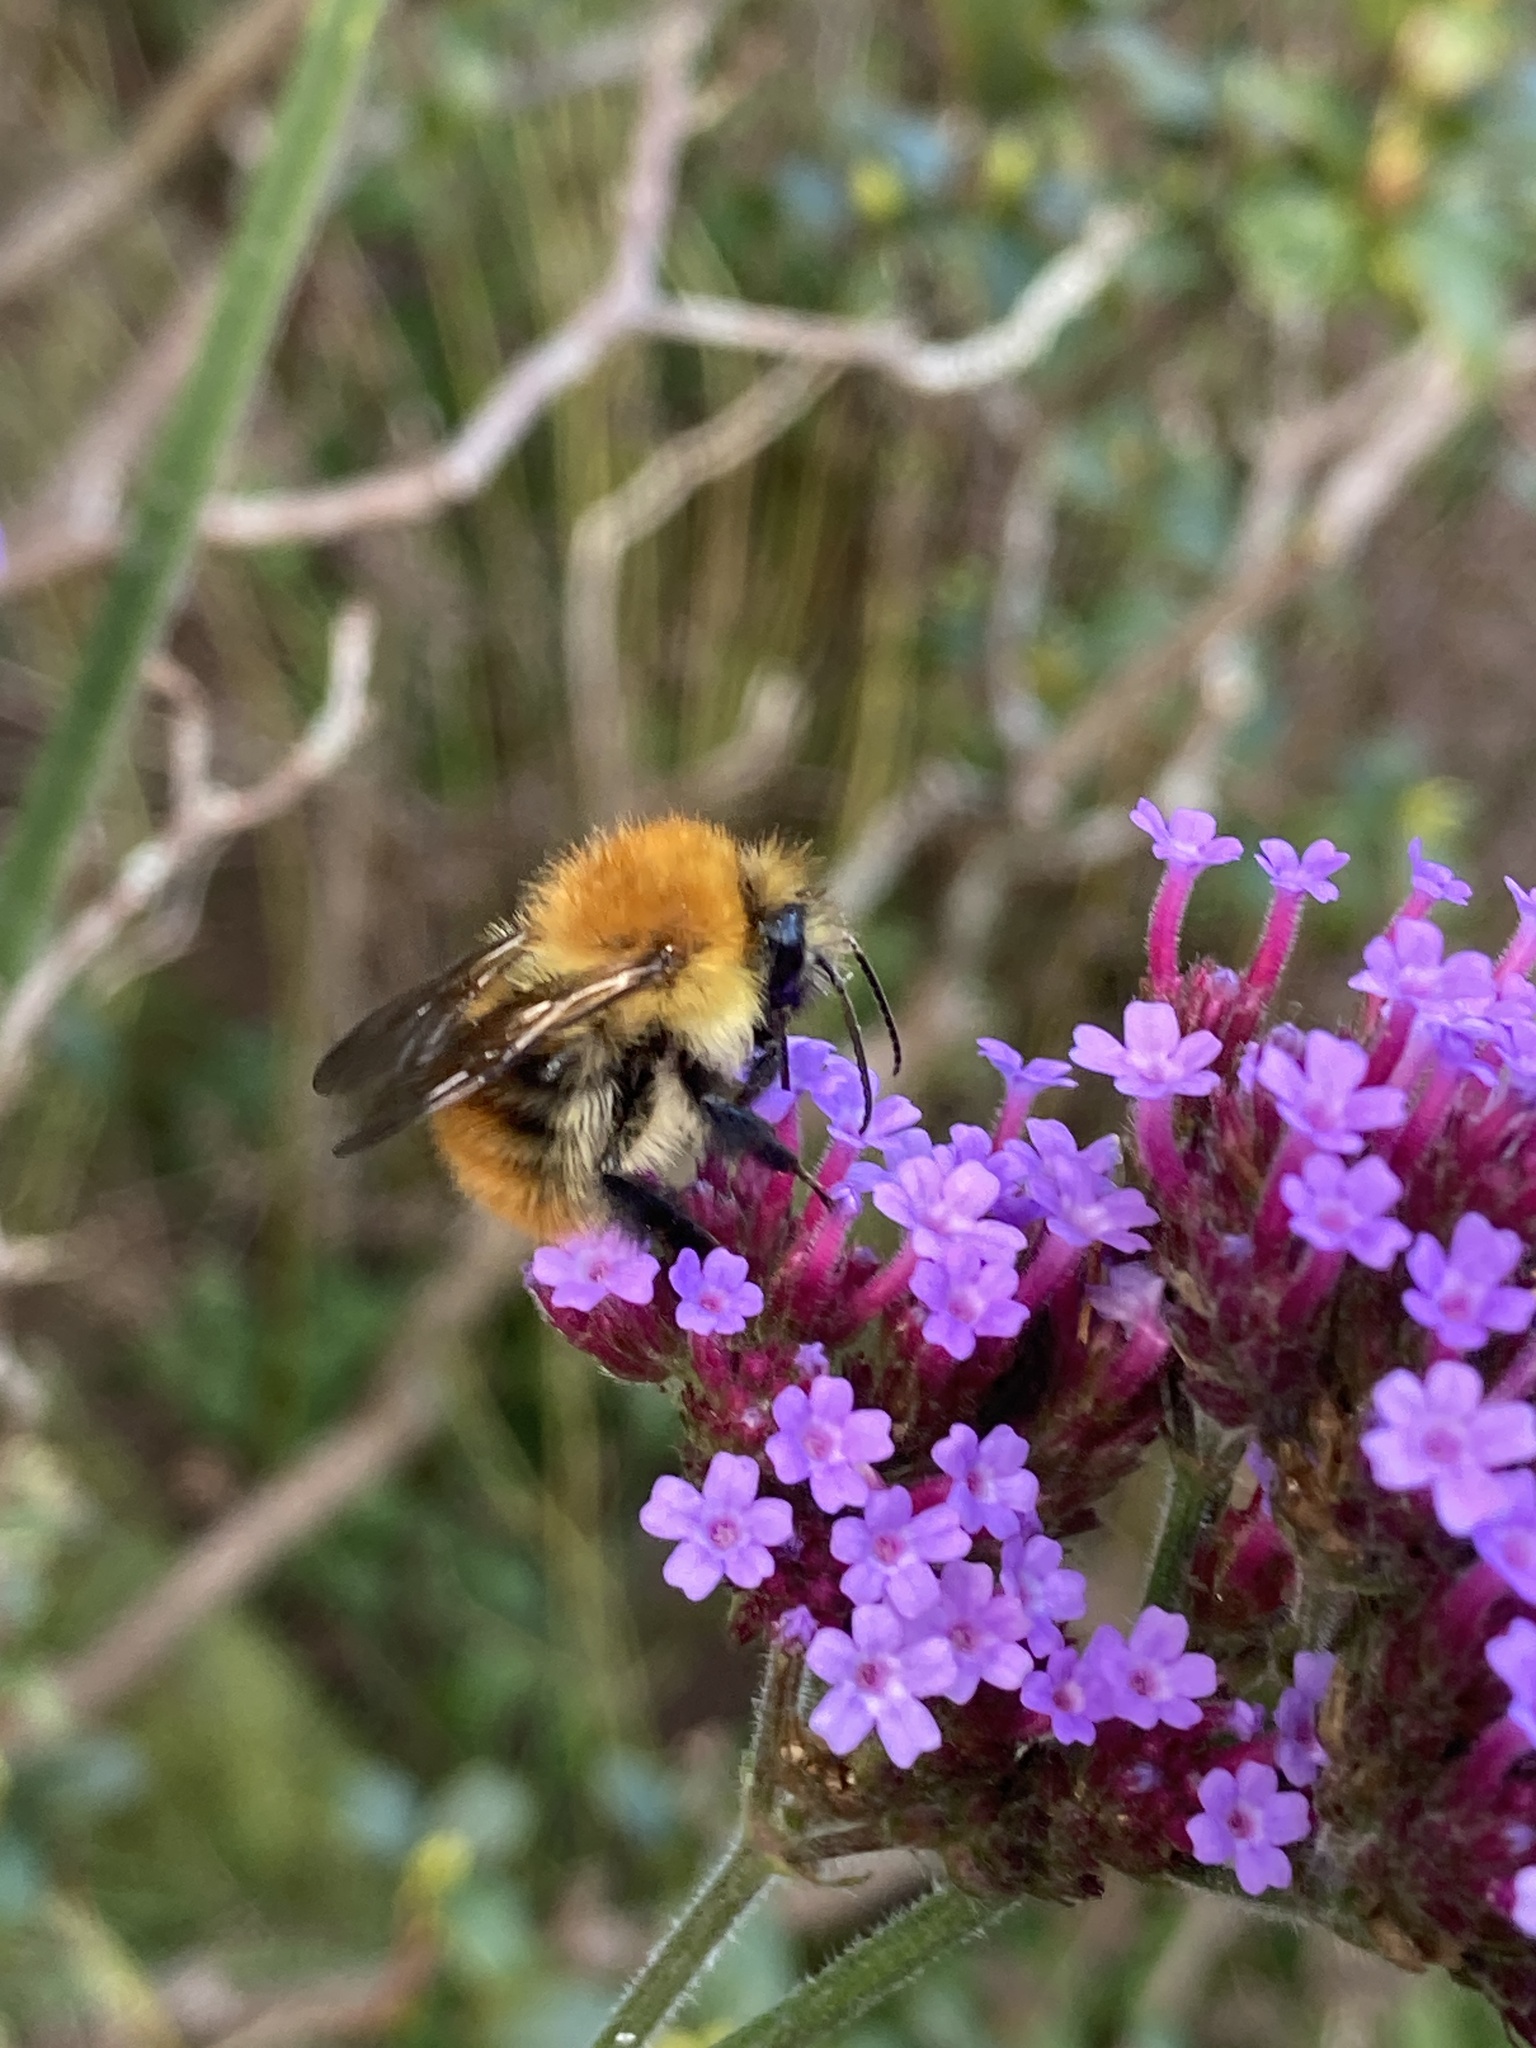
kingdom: Animalia
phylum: Arthropoda
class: Insecta
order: Hymenoptera
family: Apidae
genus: Bombus
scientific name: Bombus pascuorum
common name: Common carder bee
